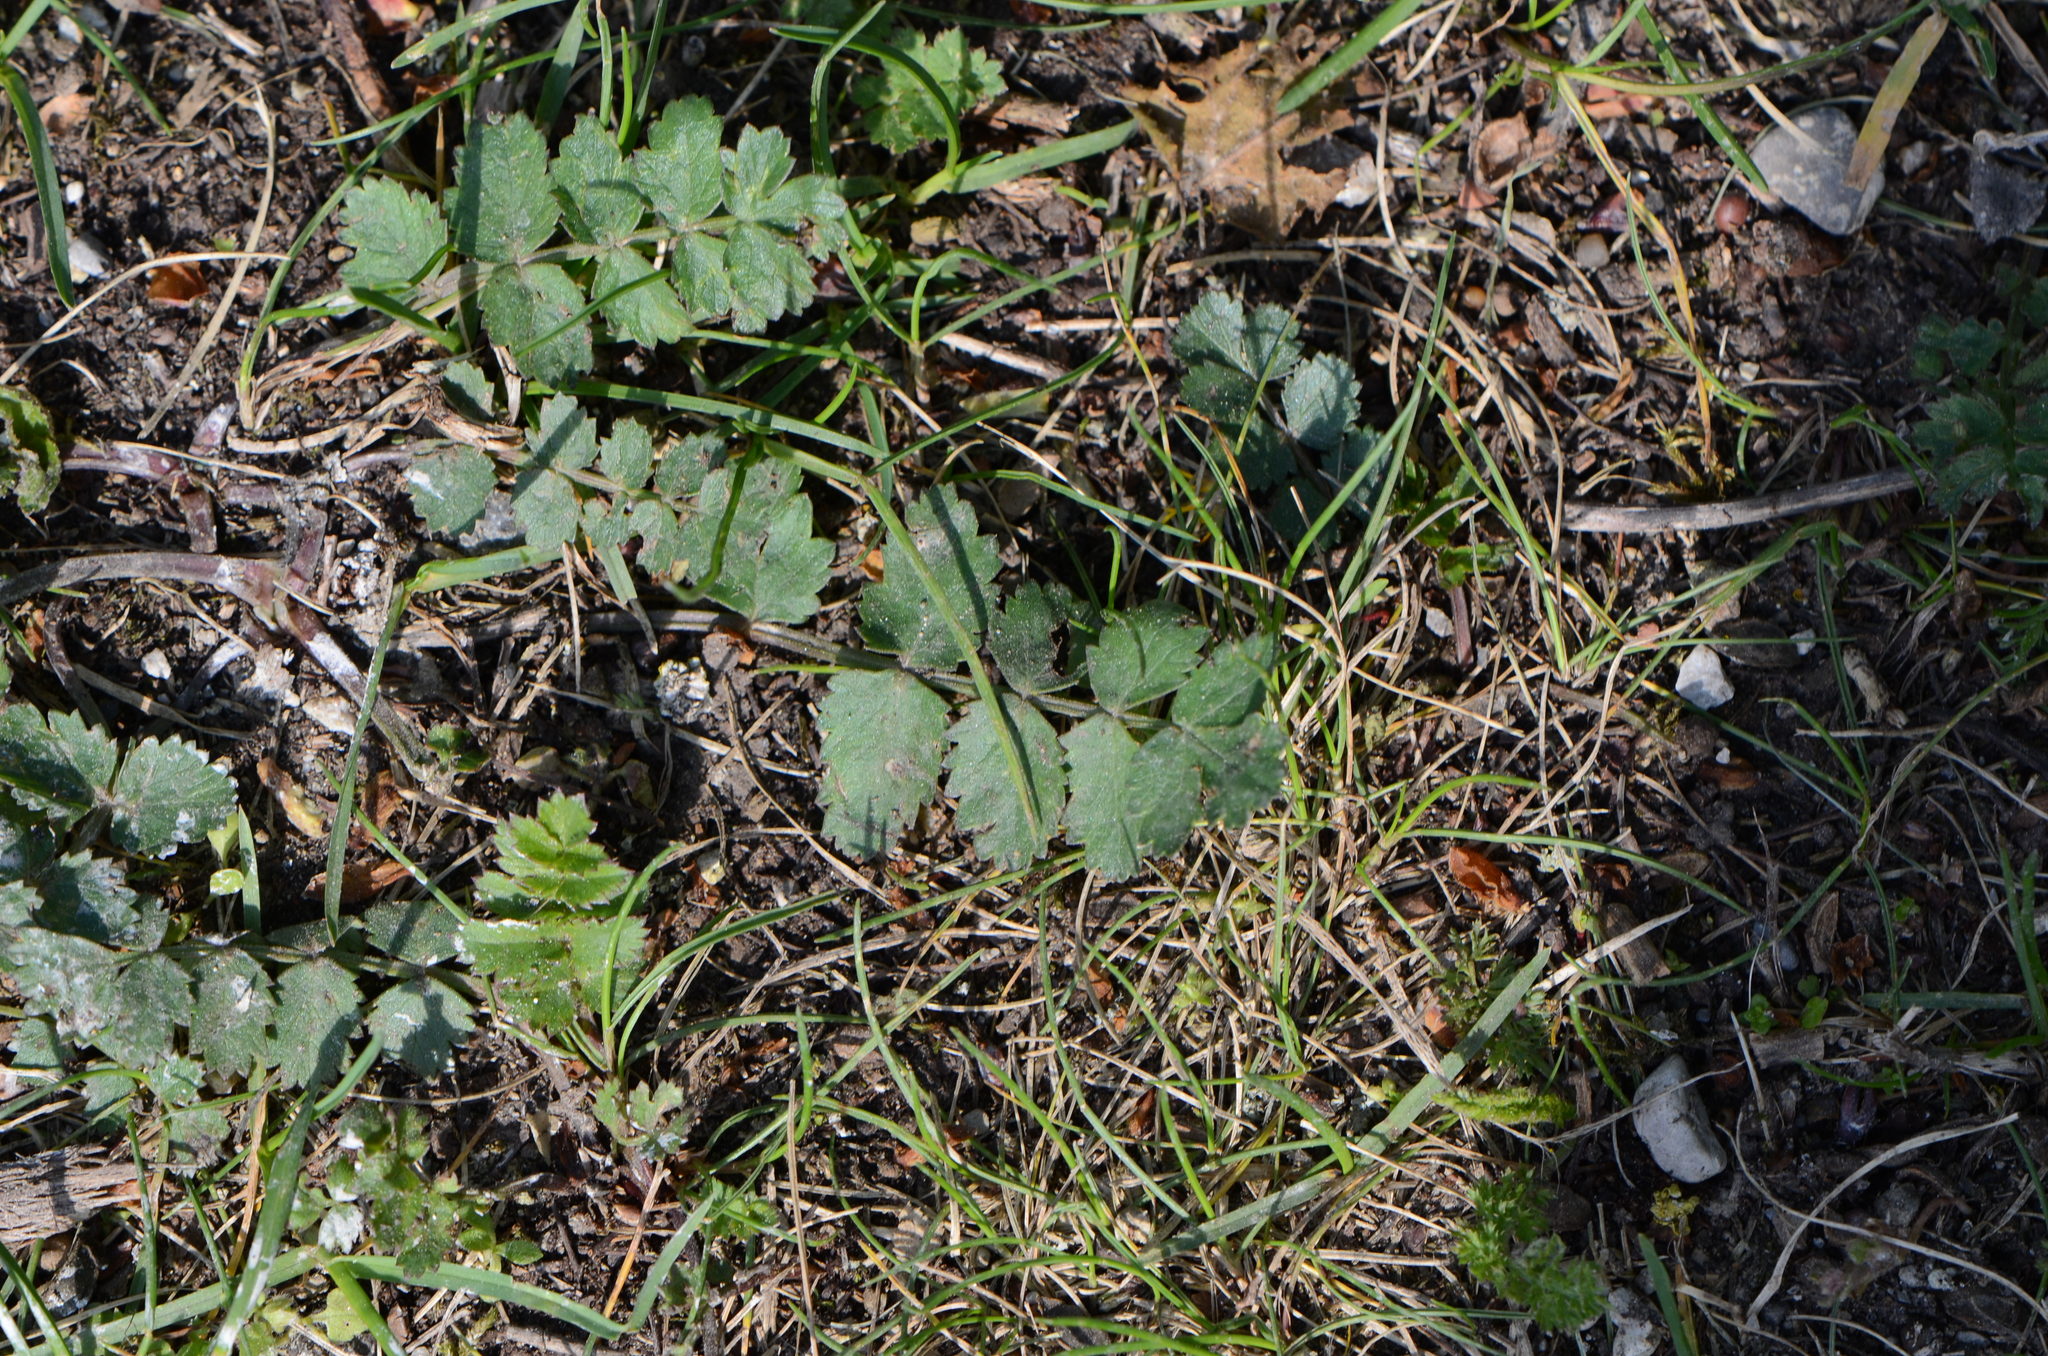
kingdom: Plantae
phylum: Tracheophyta
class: Magnoliopsida
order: Apiales
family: Apiaceae
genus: Pimpinella
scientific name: Pimpinella saxifraga
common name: Burnet-saxifrage
